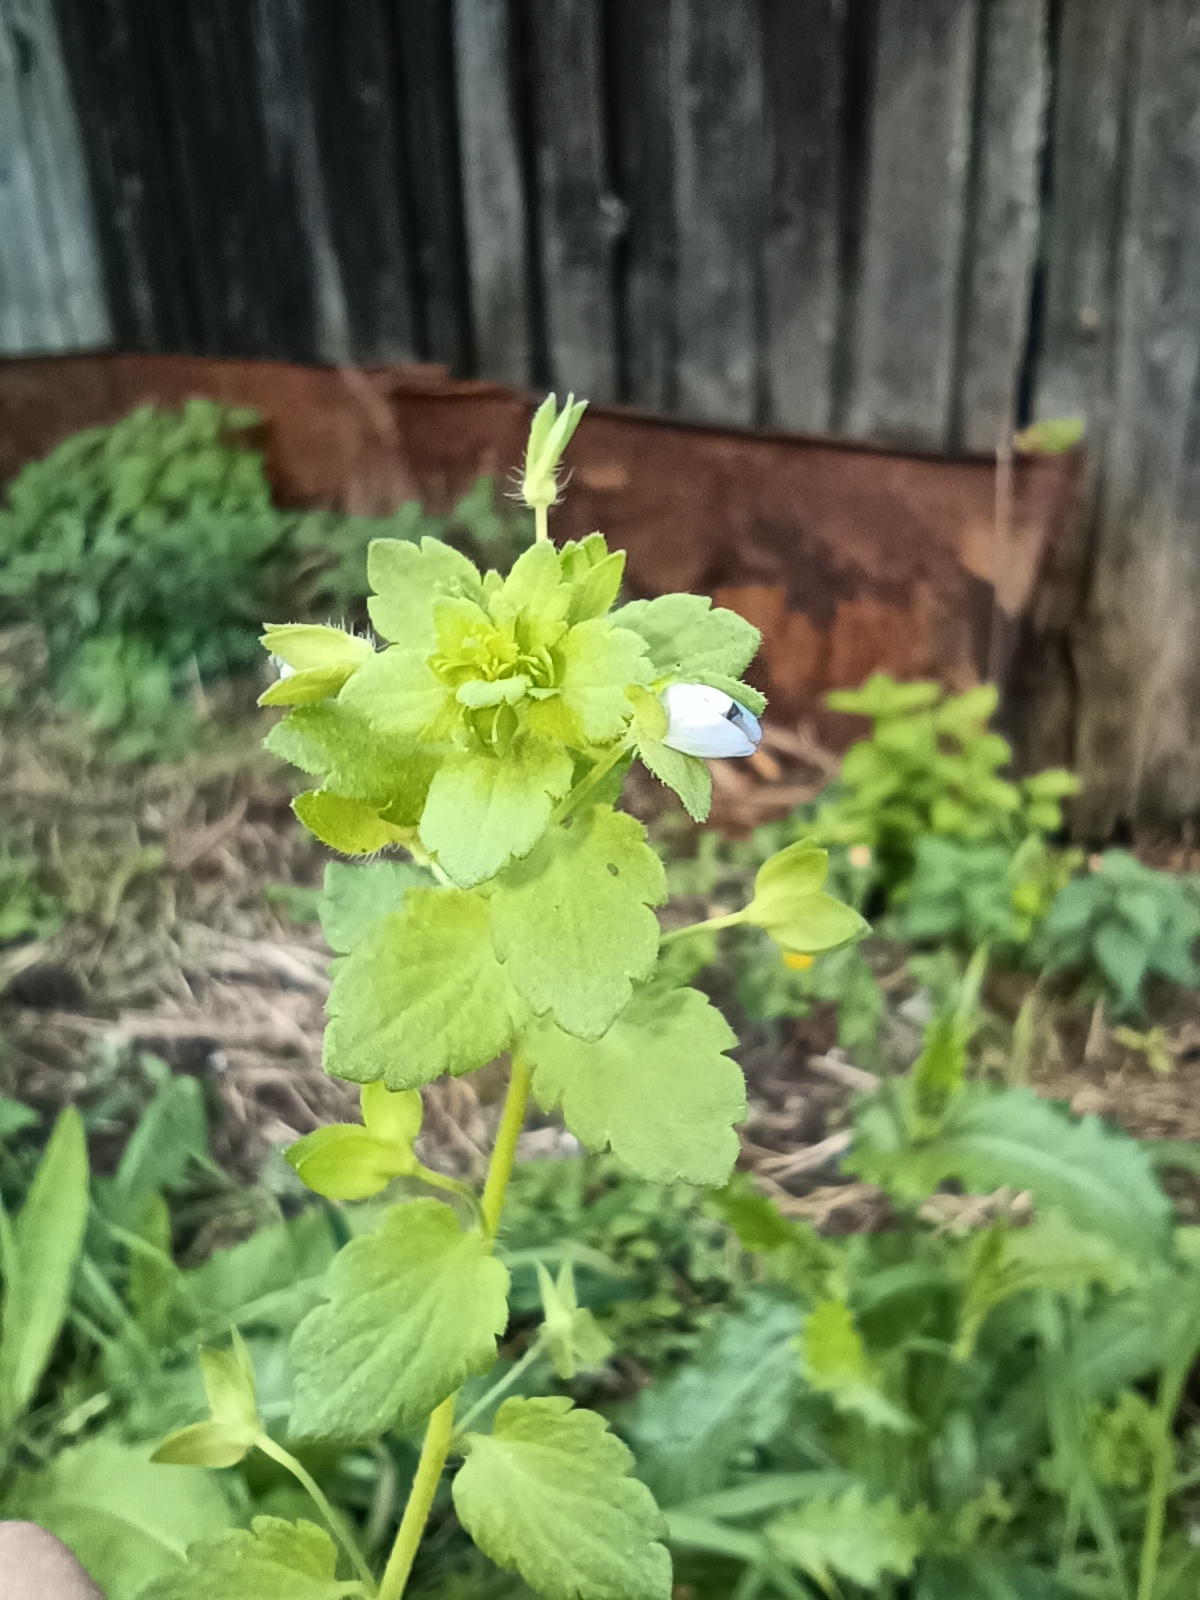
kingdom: Plantae
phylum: Tracheophyta
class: Magnoliopsida
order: Lamiales
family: Plantaginaceae
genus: Veronica
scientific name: Veronica persica
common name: Common field-speedwell
